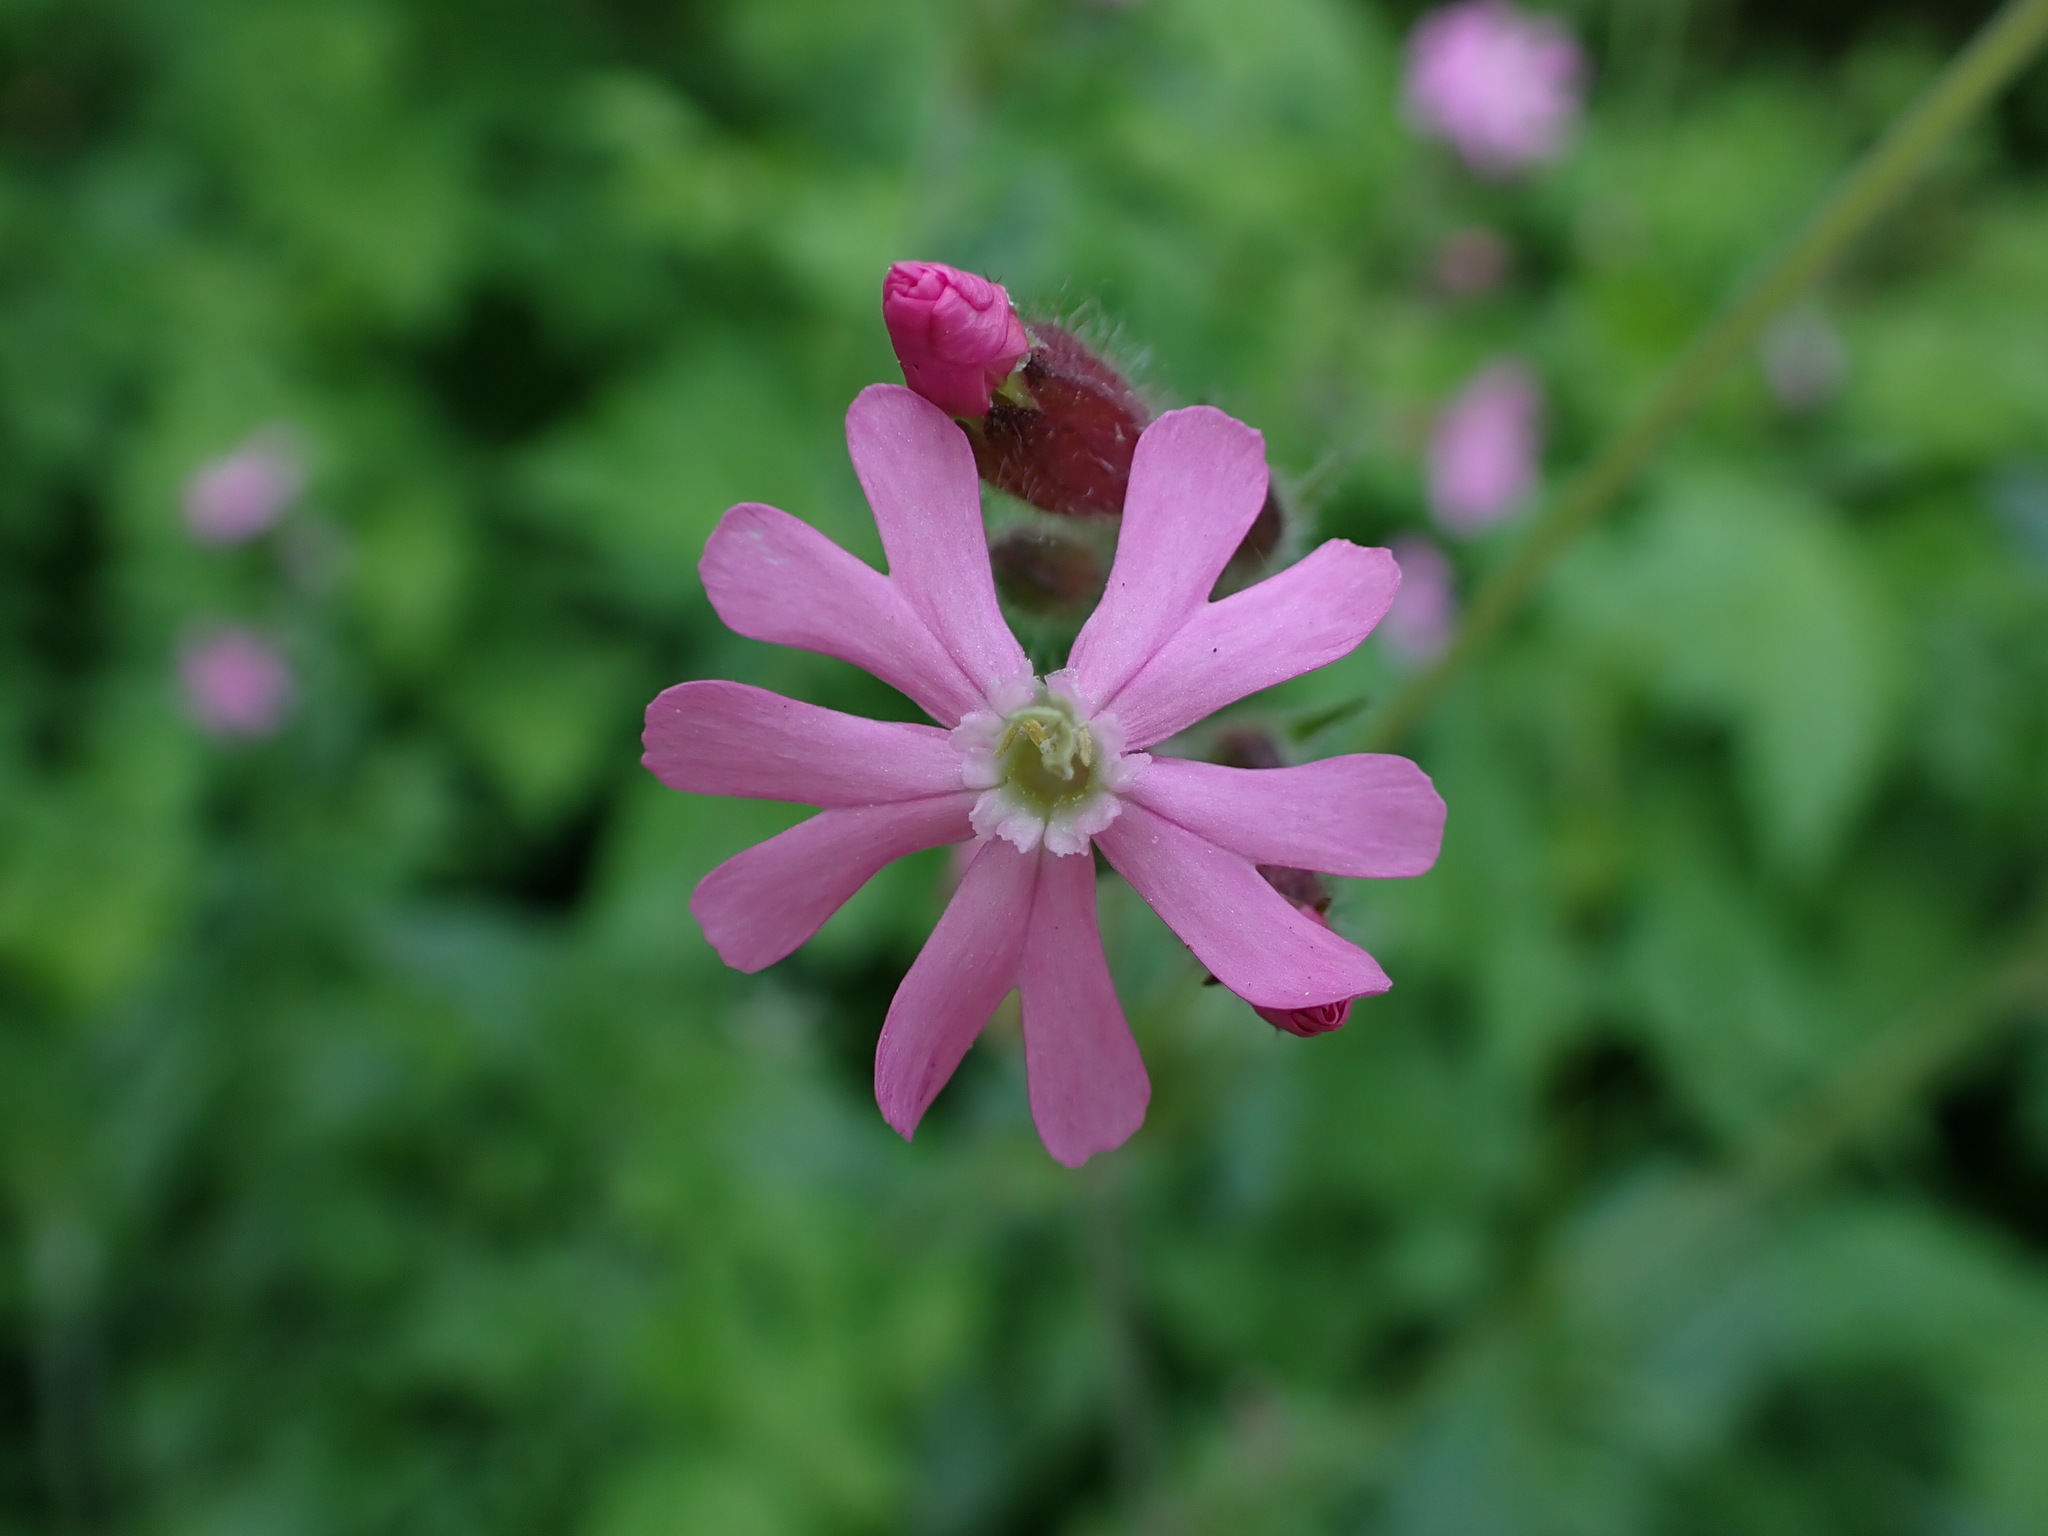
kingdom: Plantae
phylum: Tracheophyta
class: Magnoliopsida
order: Caryophyllales
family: Caryophyllaceae
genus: Silene
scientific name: Silene dioica
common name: Red campion
